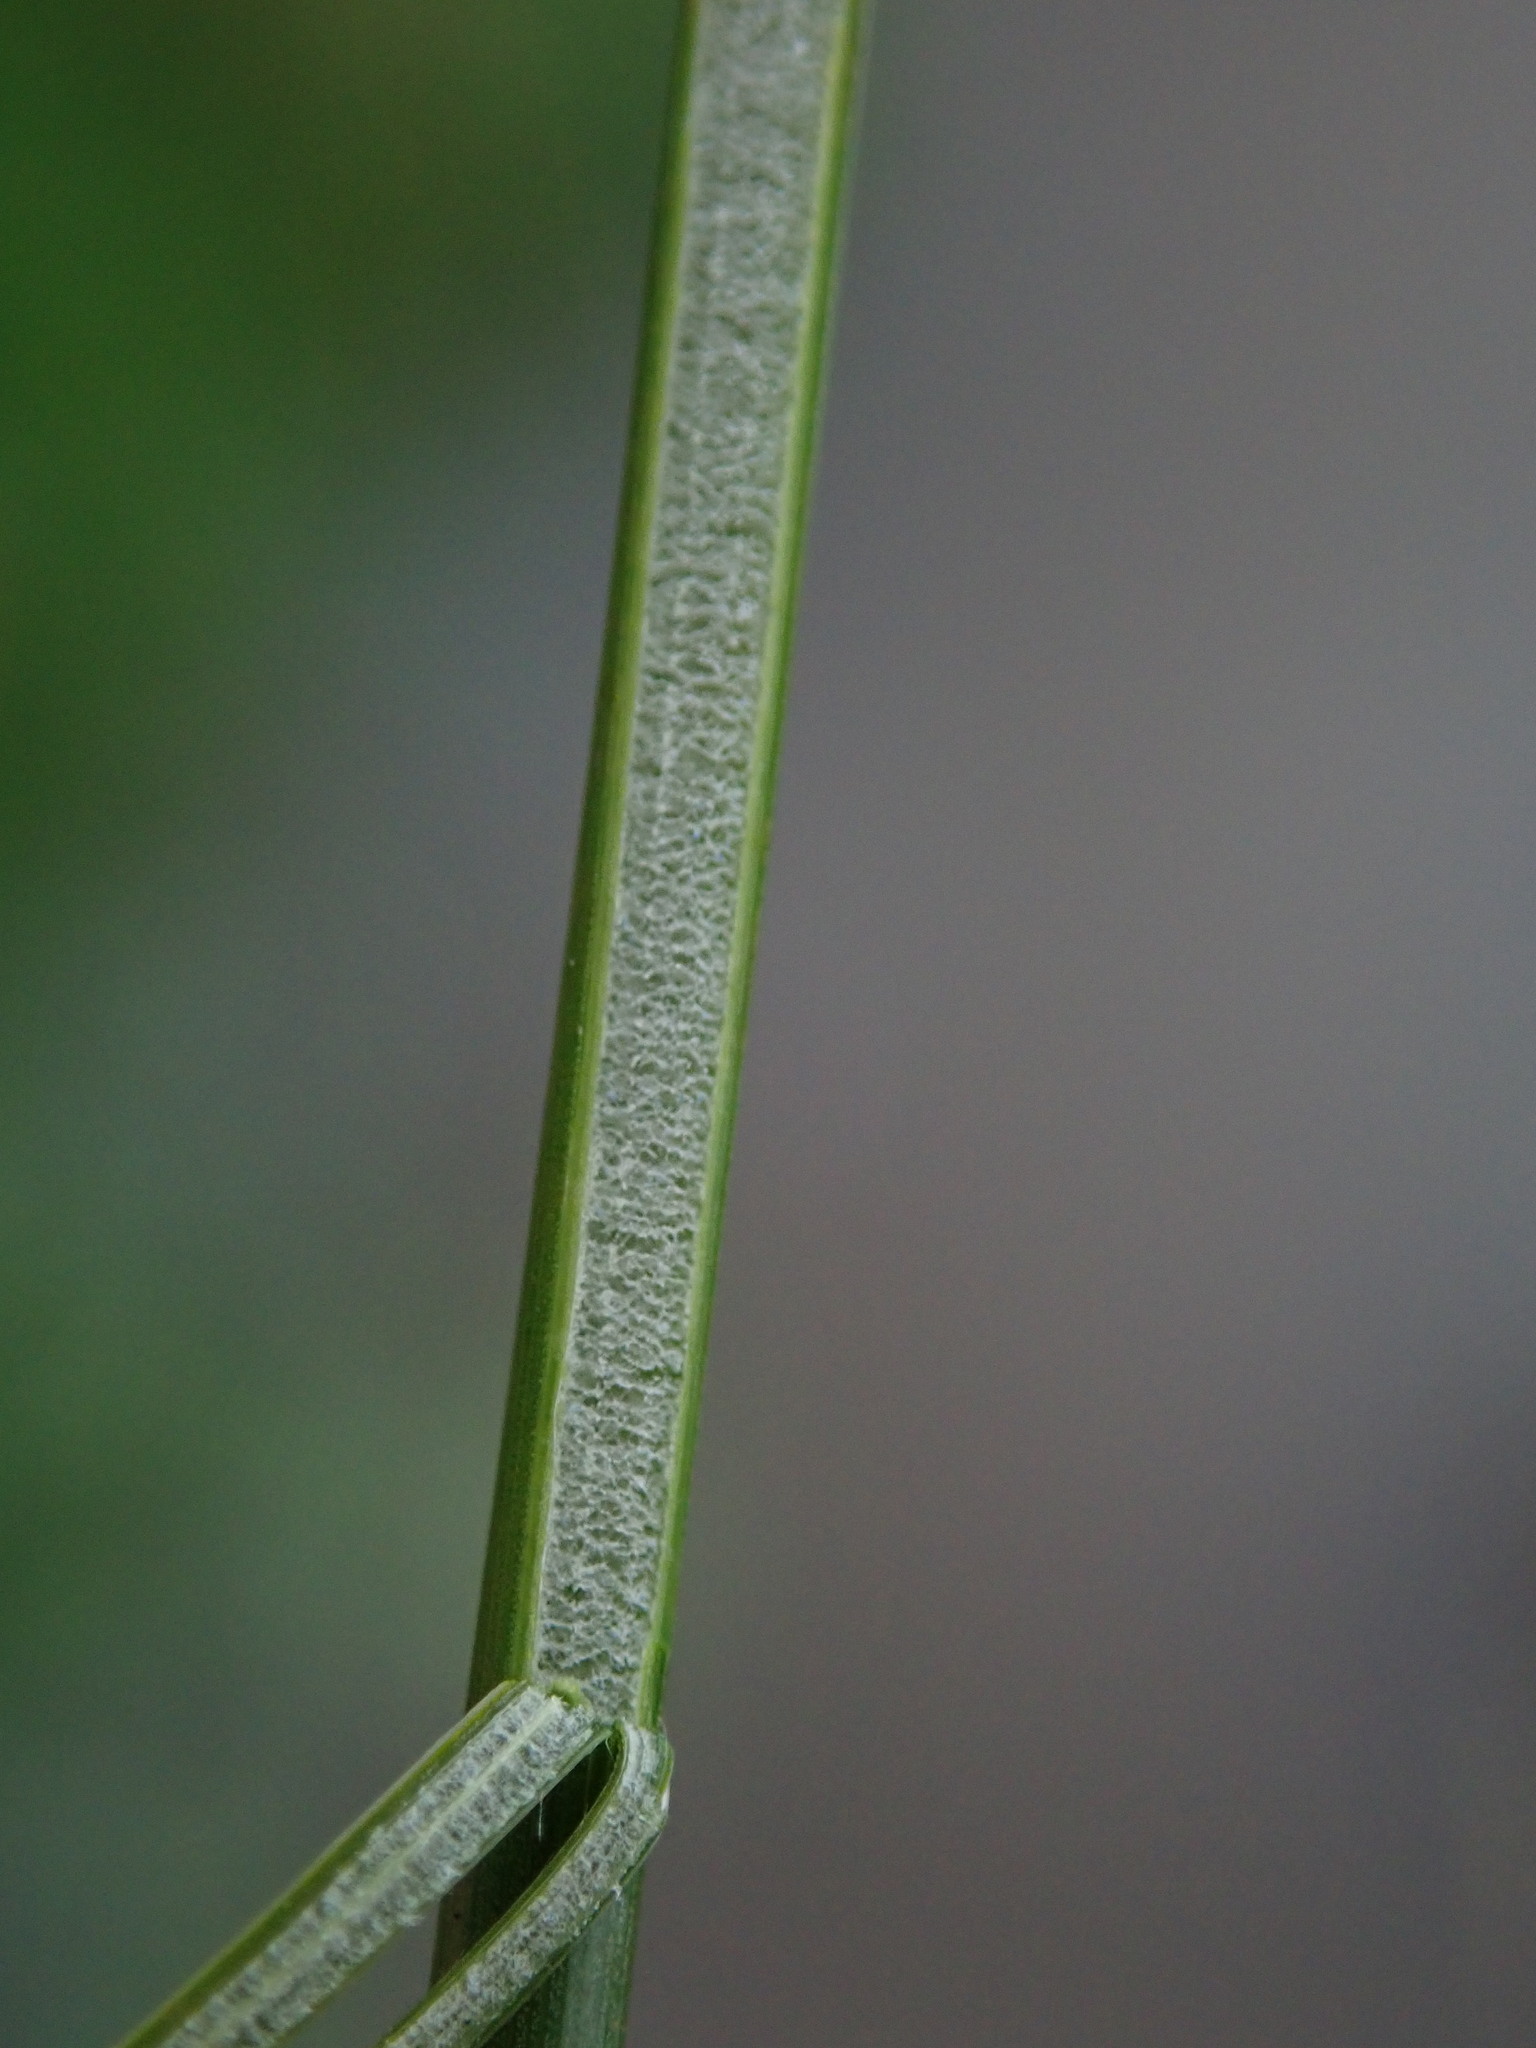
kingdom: Plantae
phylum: Tracheophyta
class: Liliopsida
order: Poales
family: Juncaceae
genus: Juncus
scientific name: Juncus effusus
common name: Soft rush
